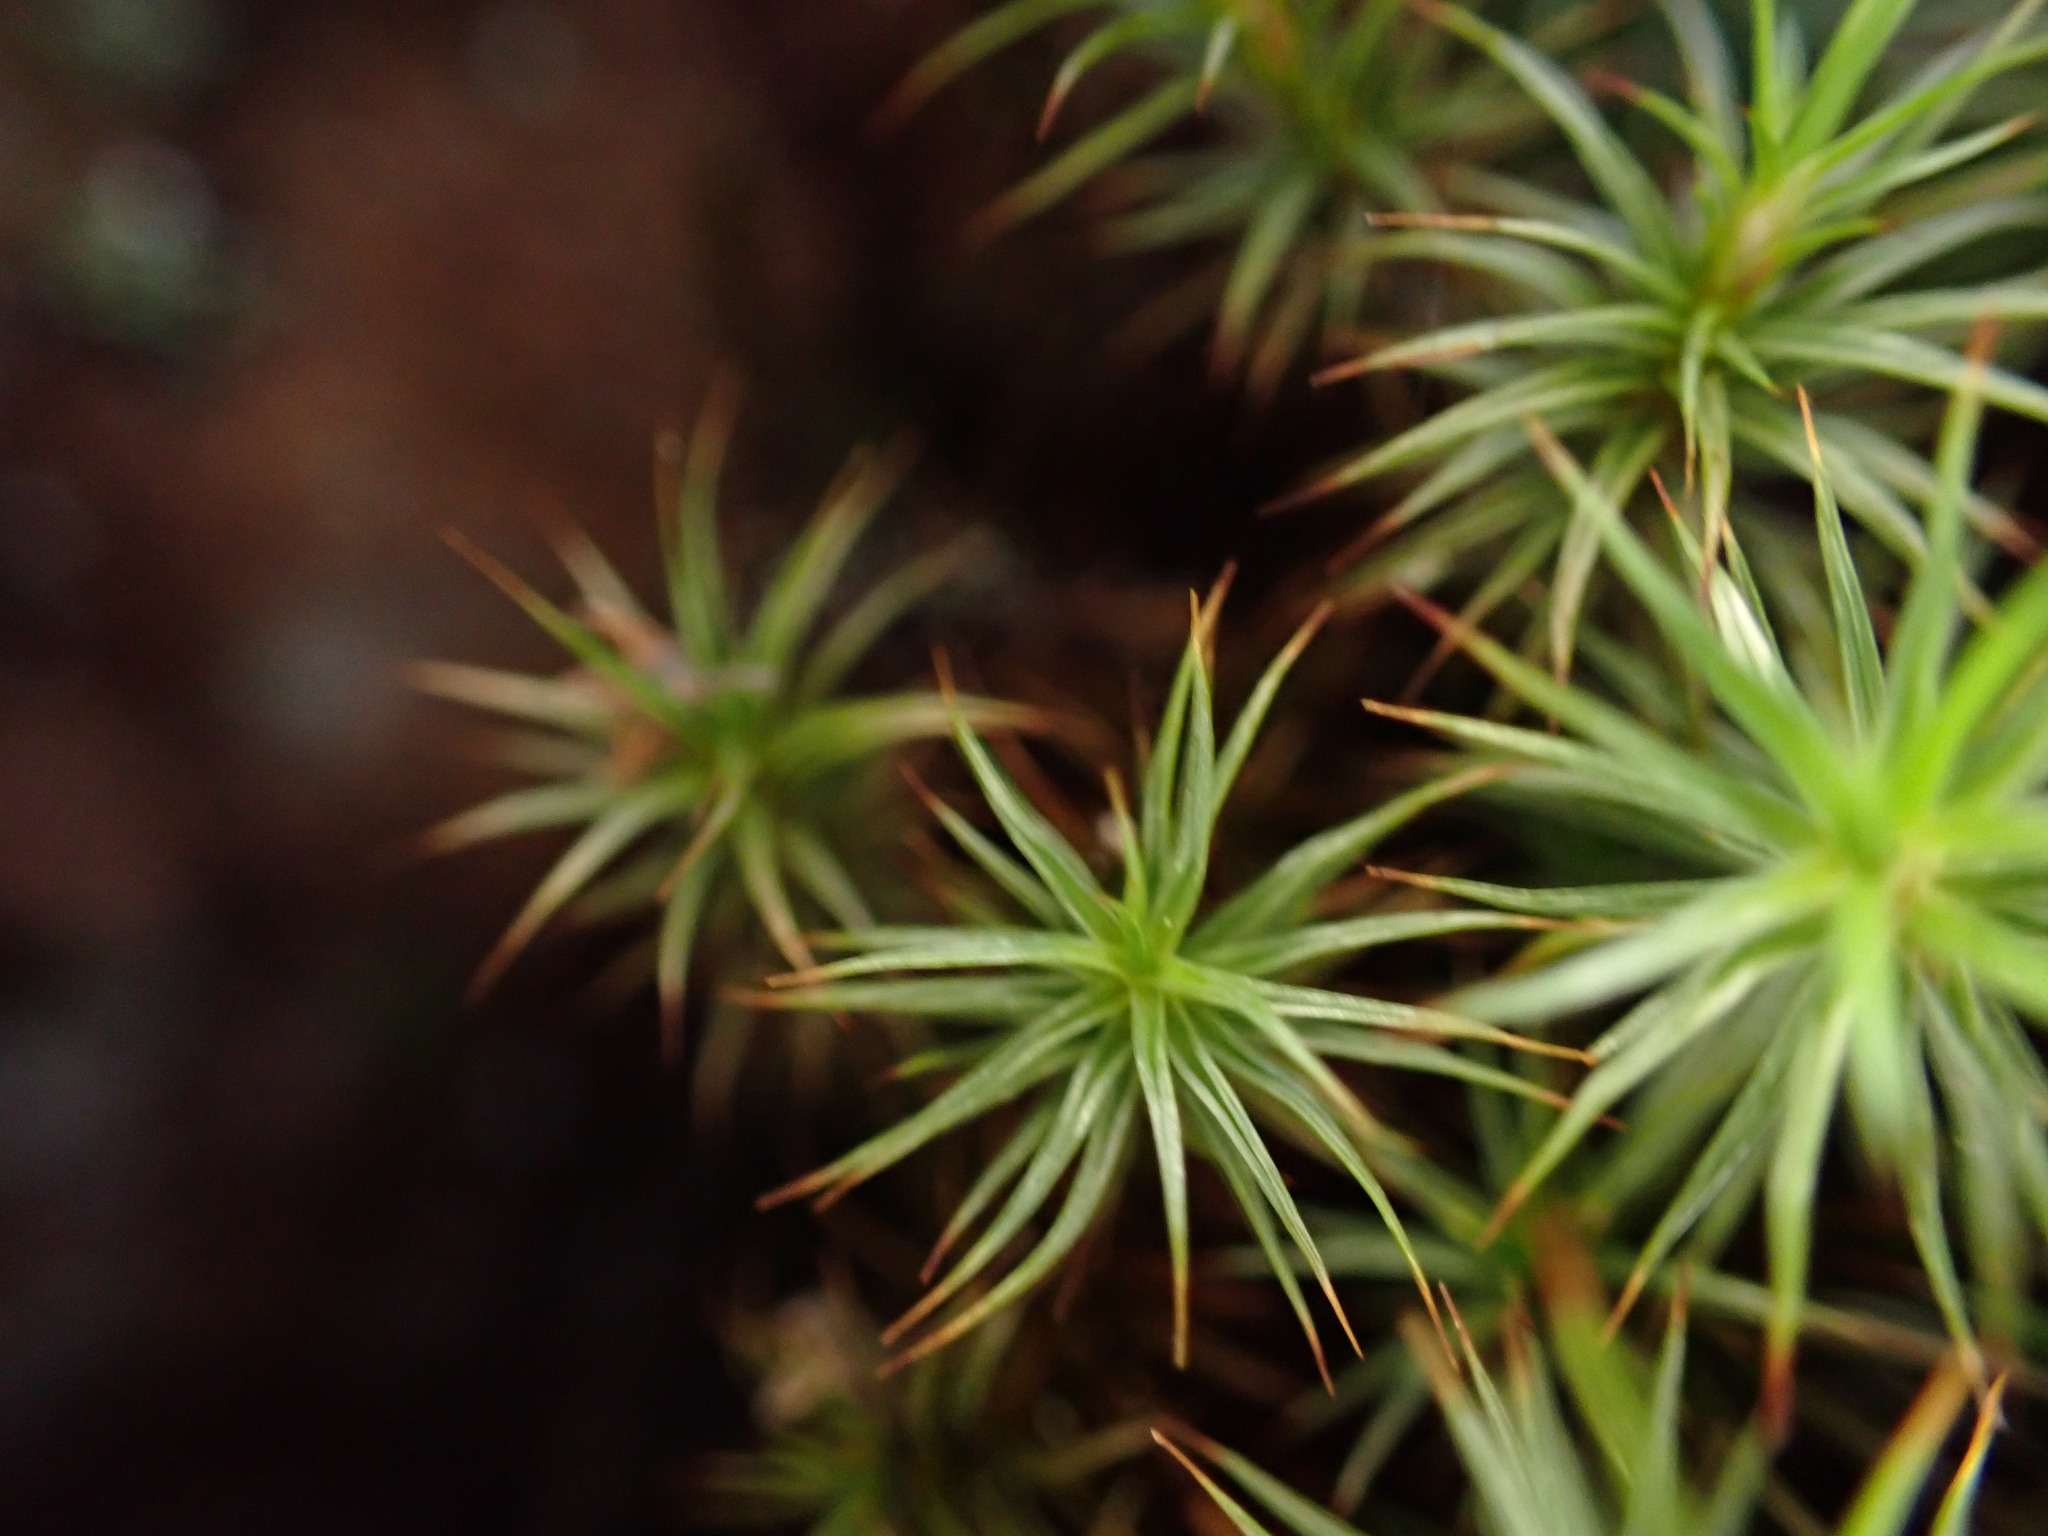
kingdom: Plantae
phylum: Bryophyta
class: Polytrichopsida
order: Polytrichales
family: Polytrichaceae
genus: Polytrichum
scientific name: Polytrichum juniperinum
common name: Juniper haircap moss
